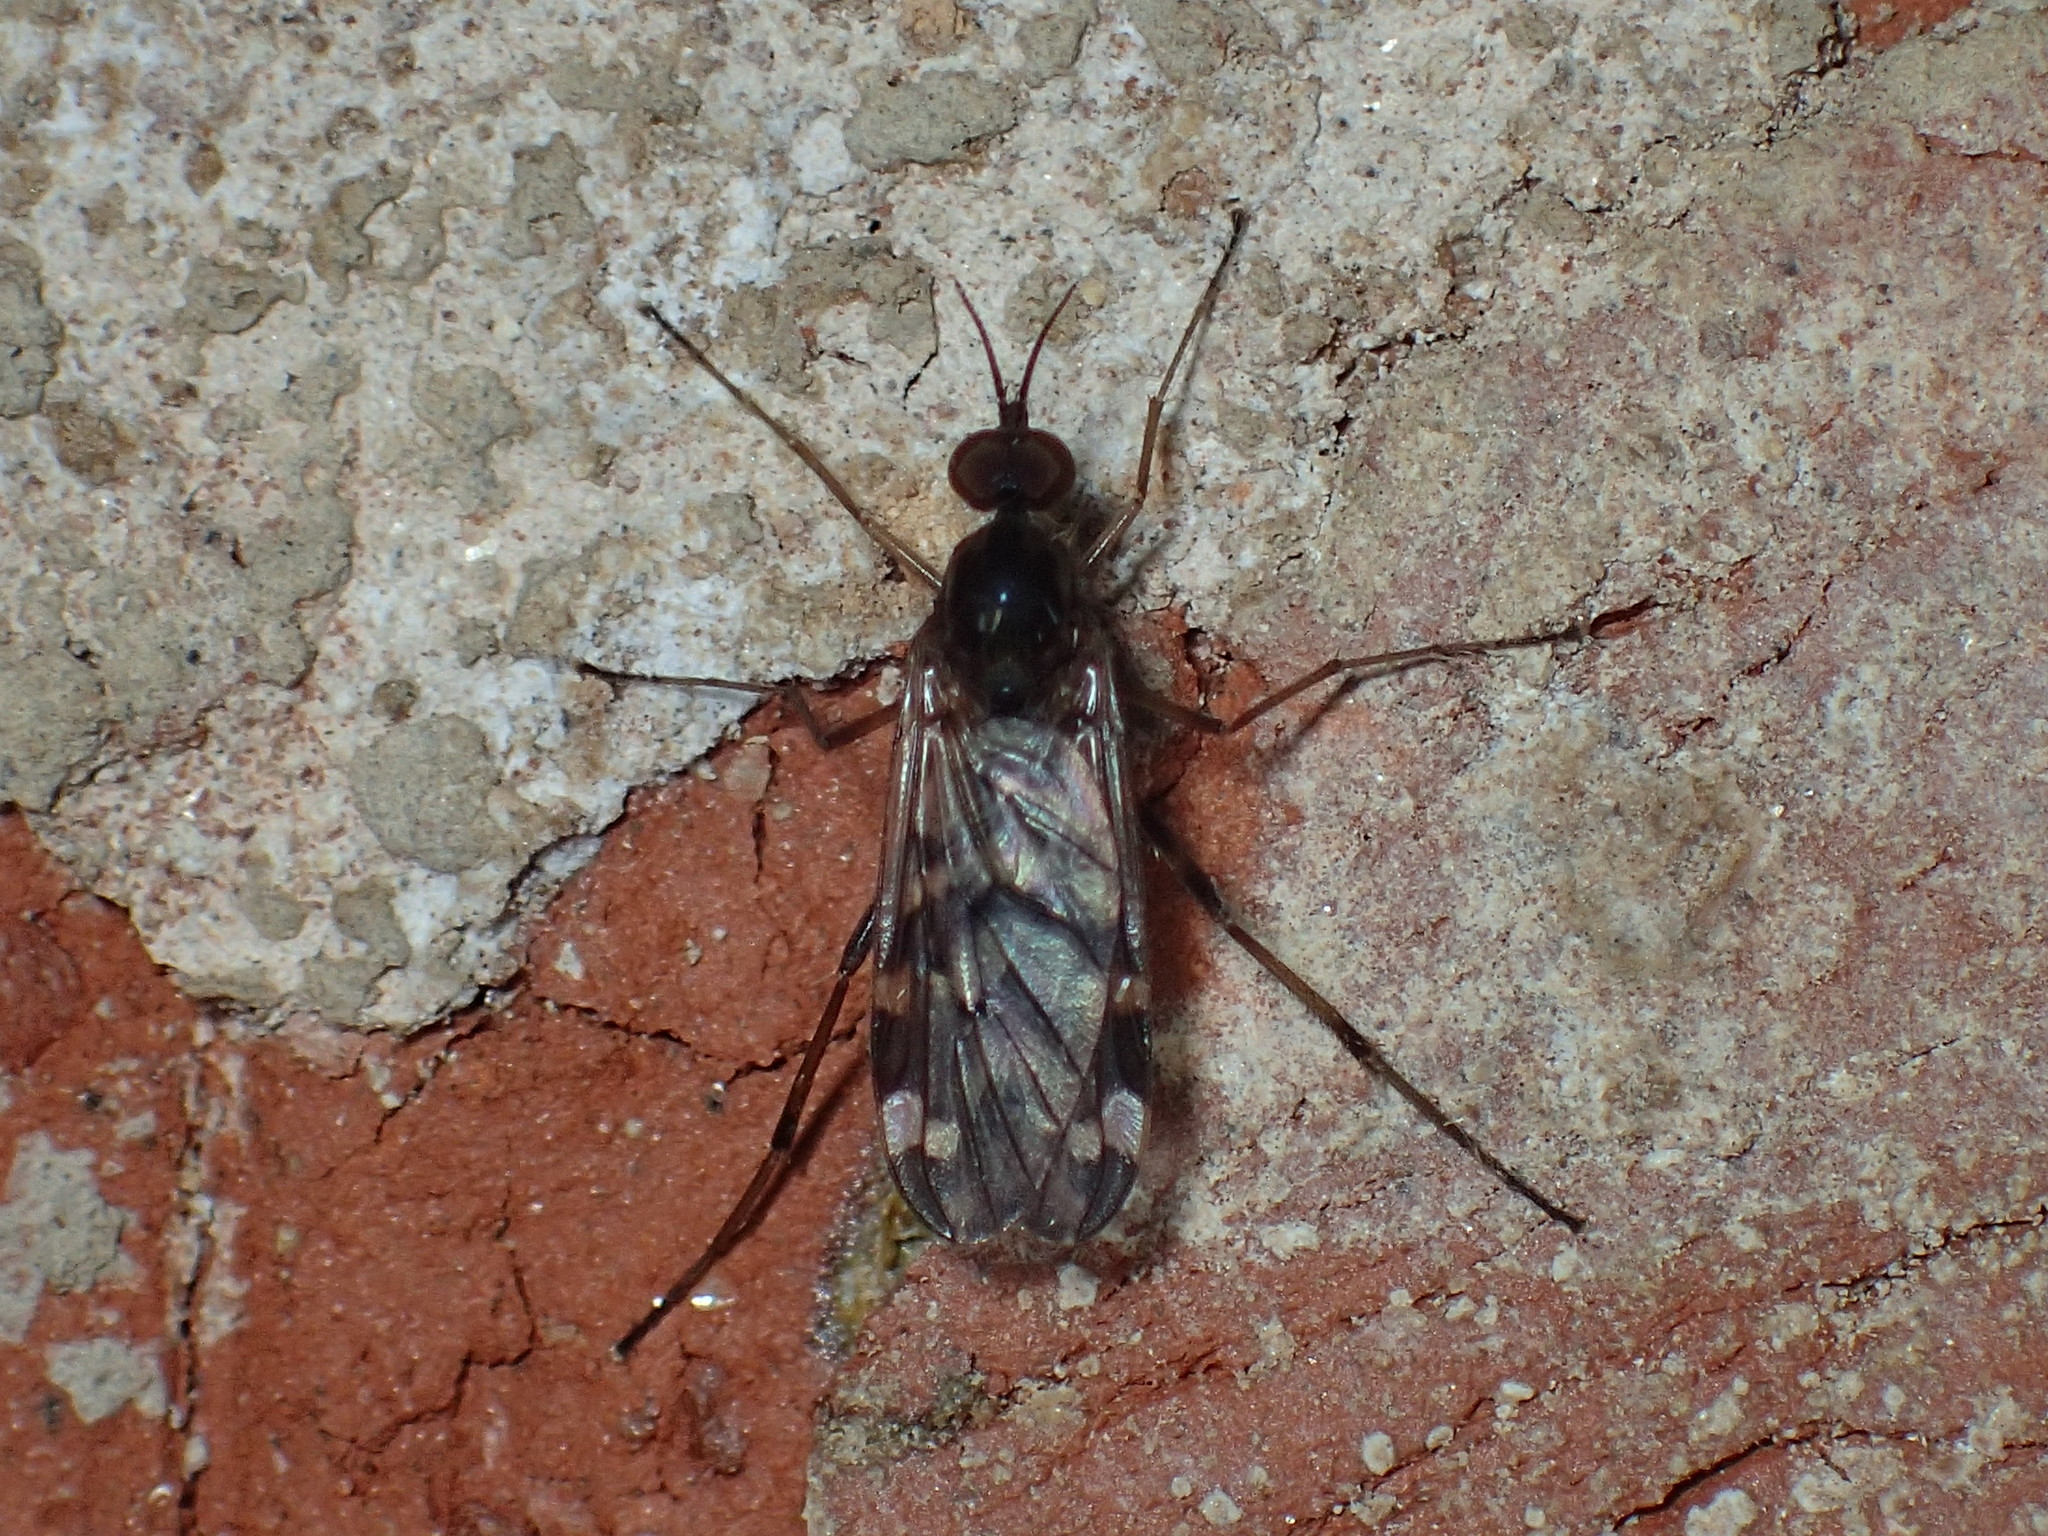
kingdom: Animalia
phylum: Arthropoda
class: Insecta
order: Diptera
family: Anisopodidae
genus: Sylvicola
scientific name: Sylvicola alternata
